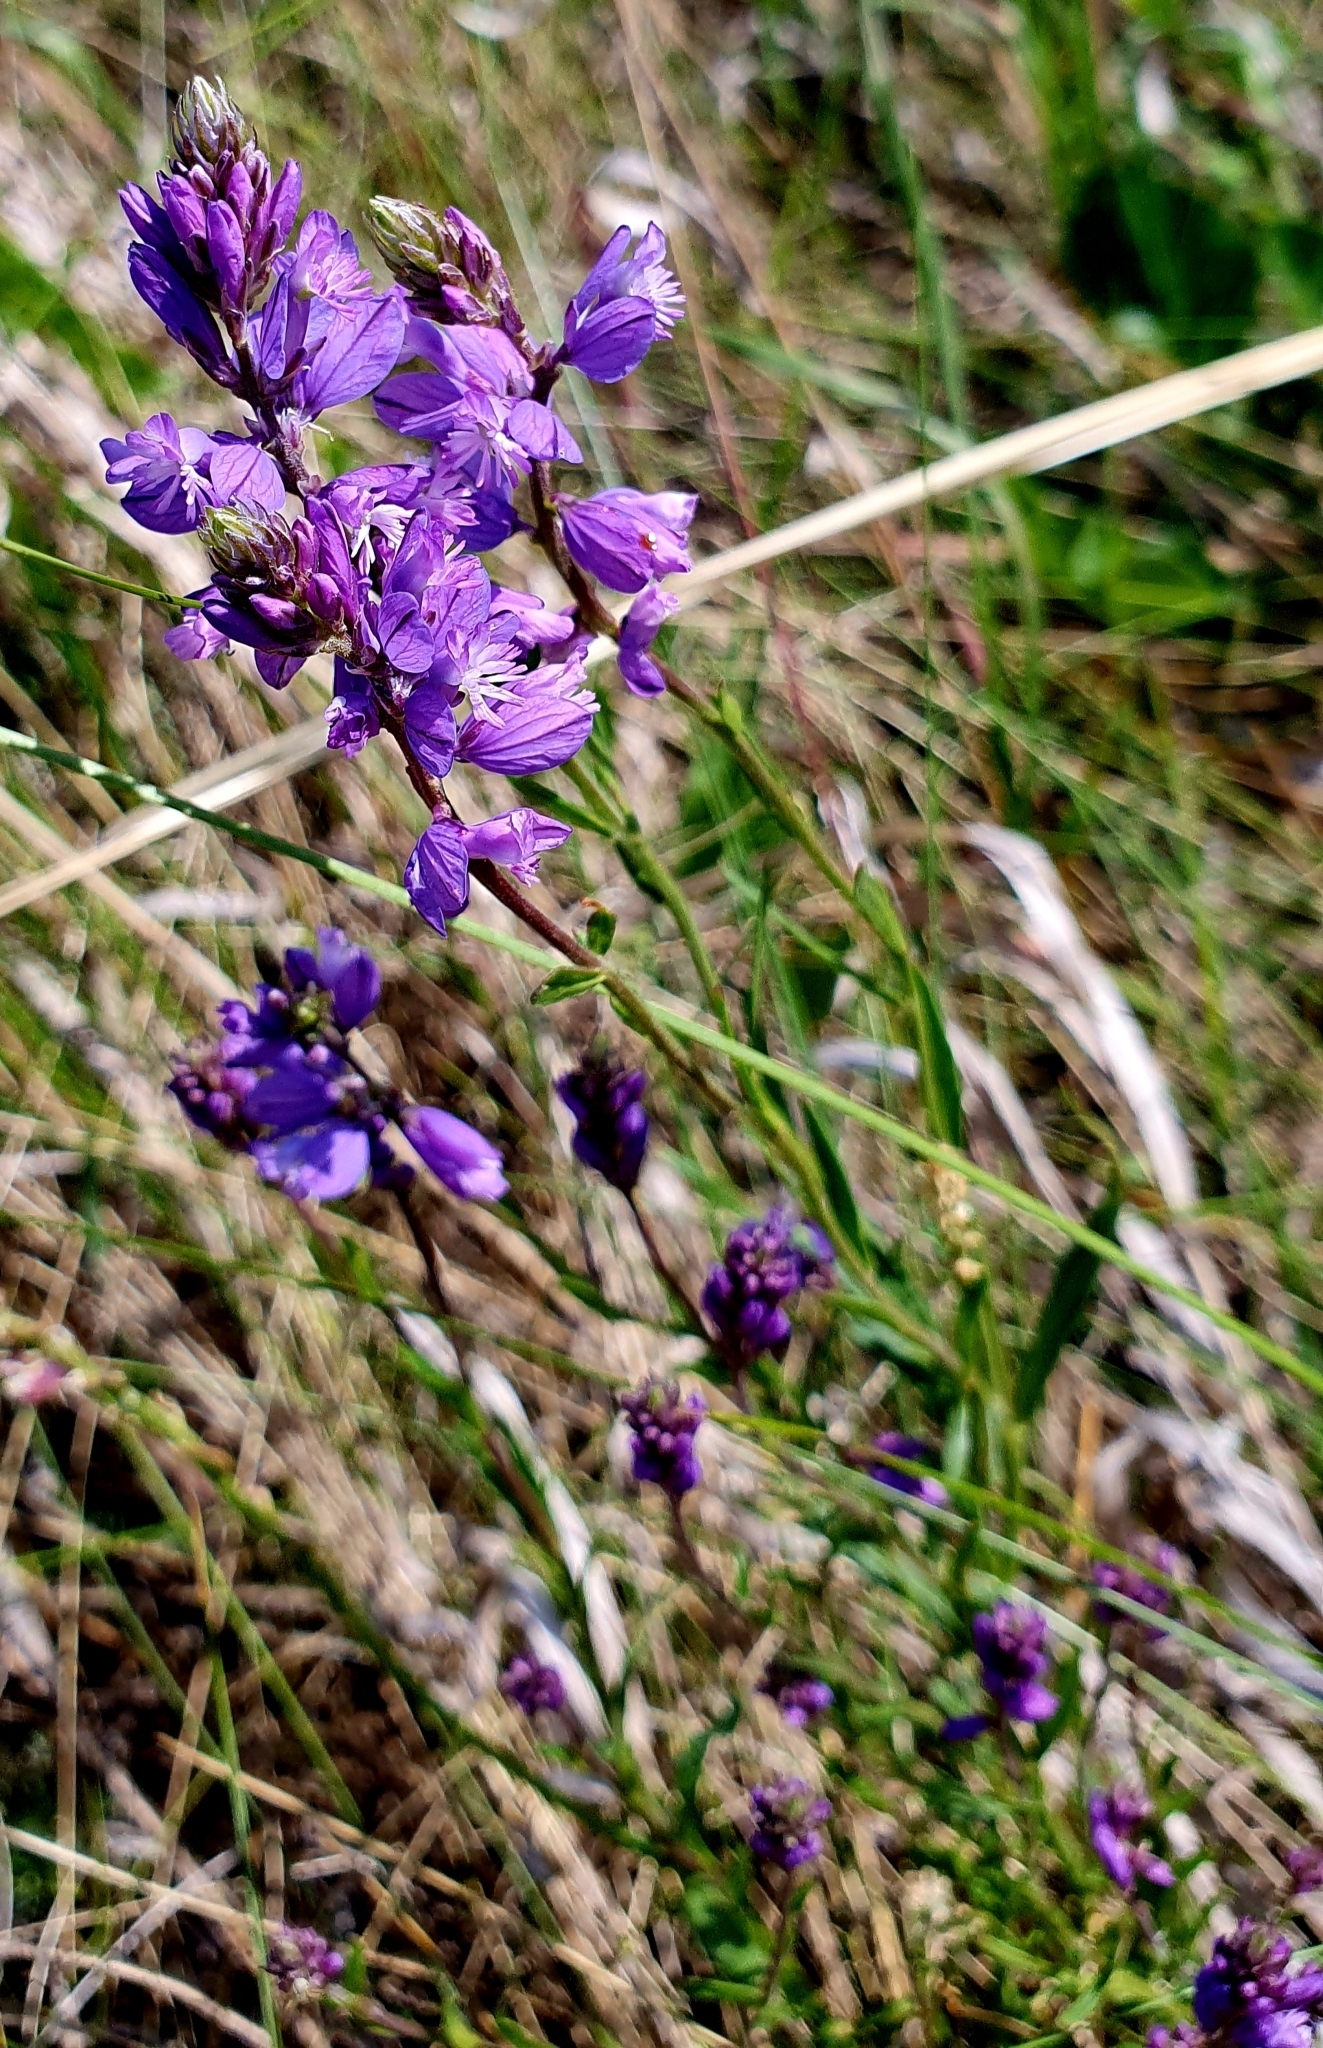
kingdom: Plantae
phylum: Tracheophyta
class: Magnoliopsida
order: Fabales
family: Polygalaceae
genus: Polygala
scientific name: Polygala comosa
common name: Tufted milkwort
